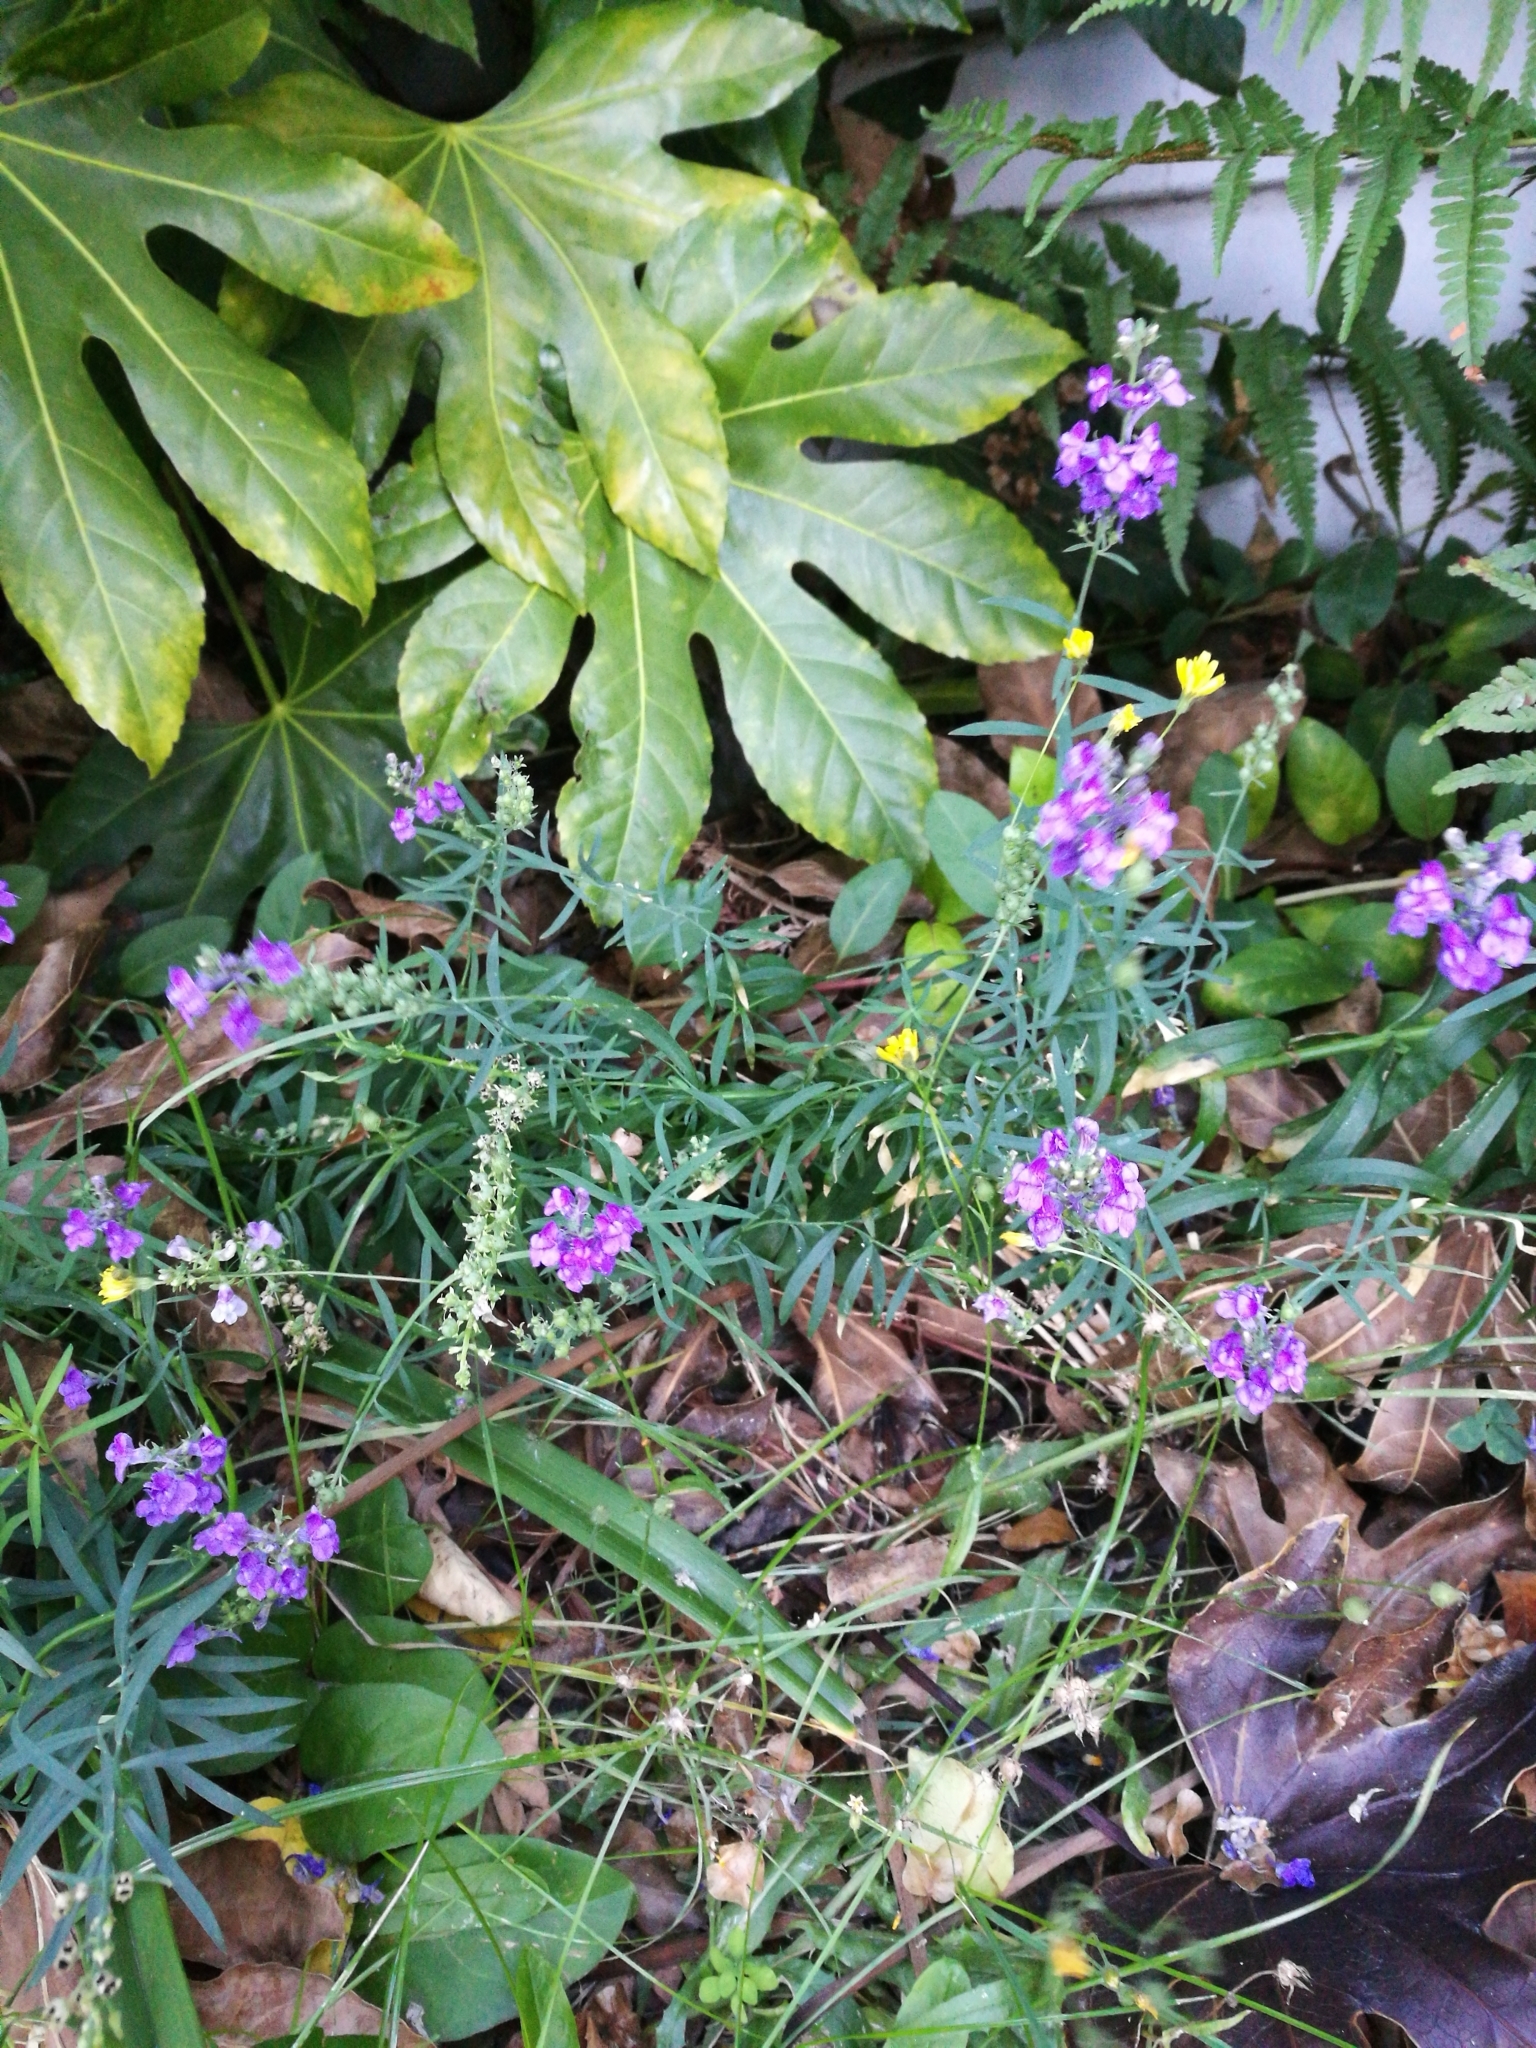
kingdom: Plantae
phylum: Tracheophyta
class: Magnoliopsida
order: Lamiales
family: Plantaginaceae
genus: Linaria
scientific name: Linaria purpurea
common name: Purple toadflax
